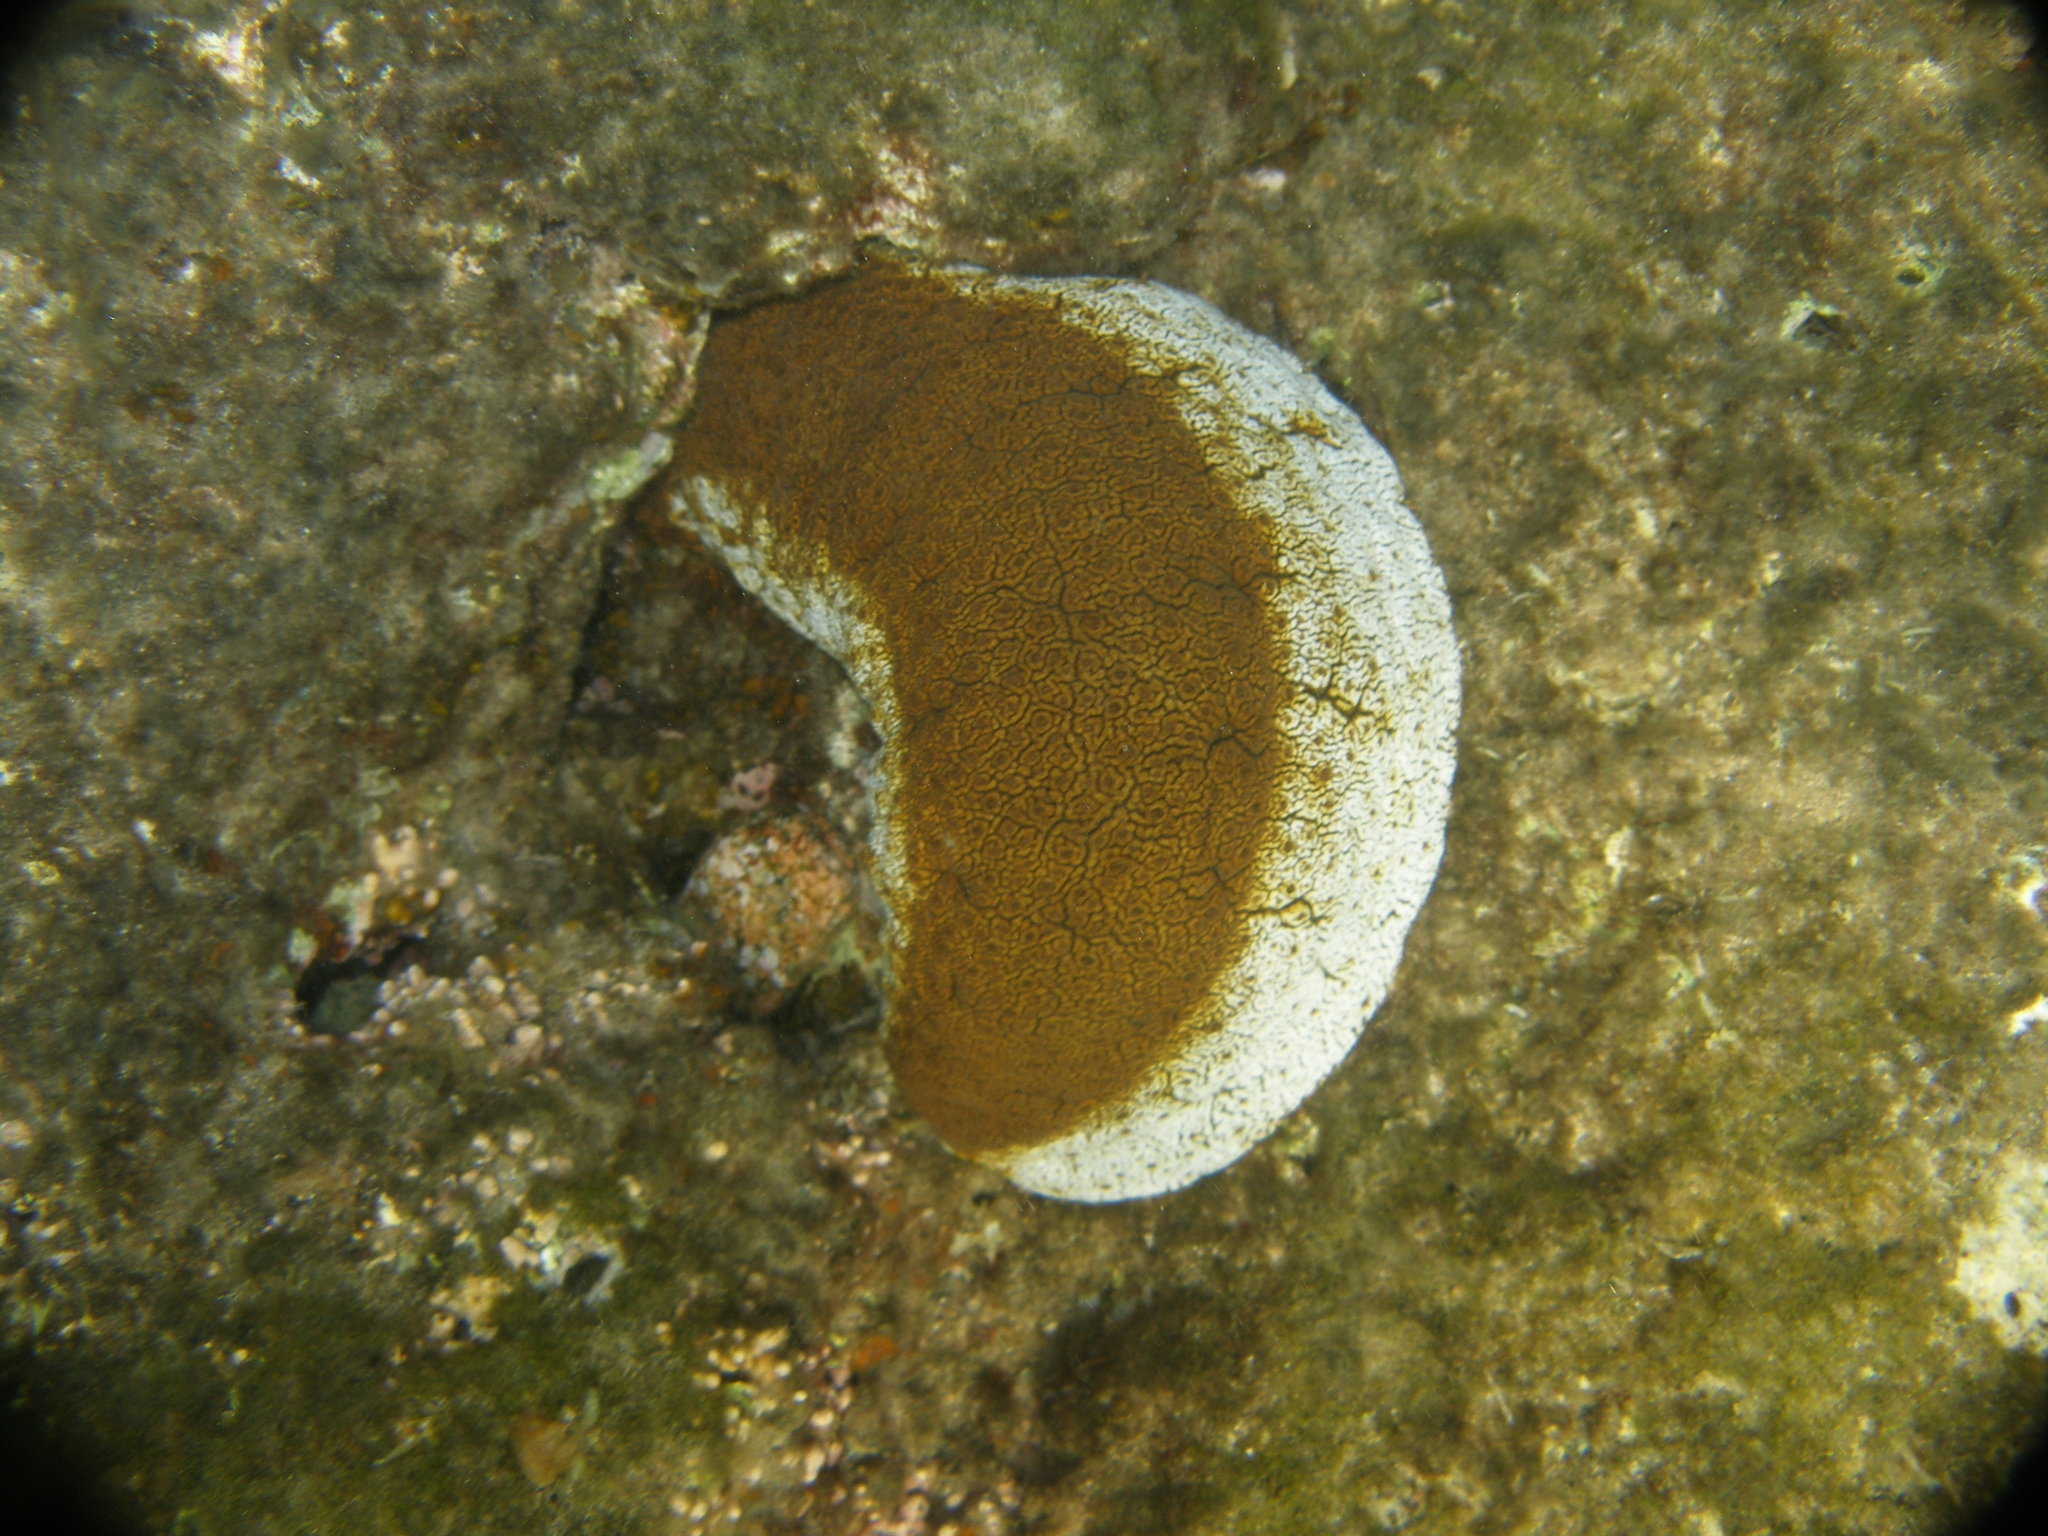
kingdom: Animalia
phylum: Echinodermata
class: Holothuroidea
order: Holothuriida
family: Holothuriidae
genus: Actinopyga
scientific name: Actinopyga mauritiana
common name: Surf redfish
